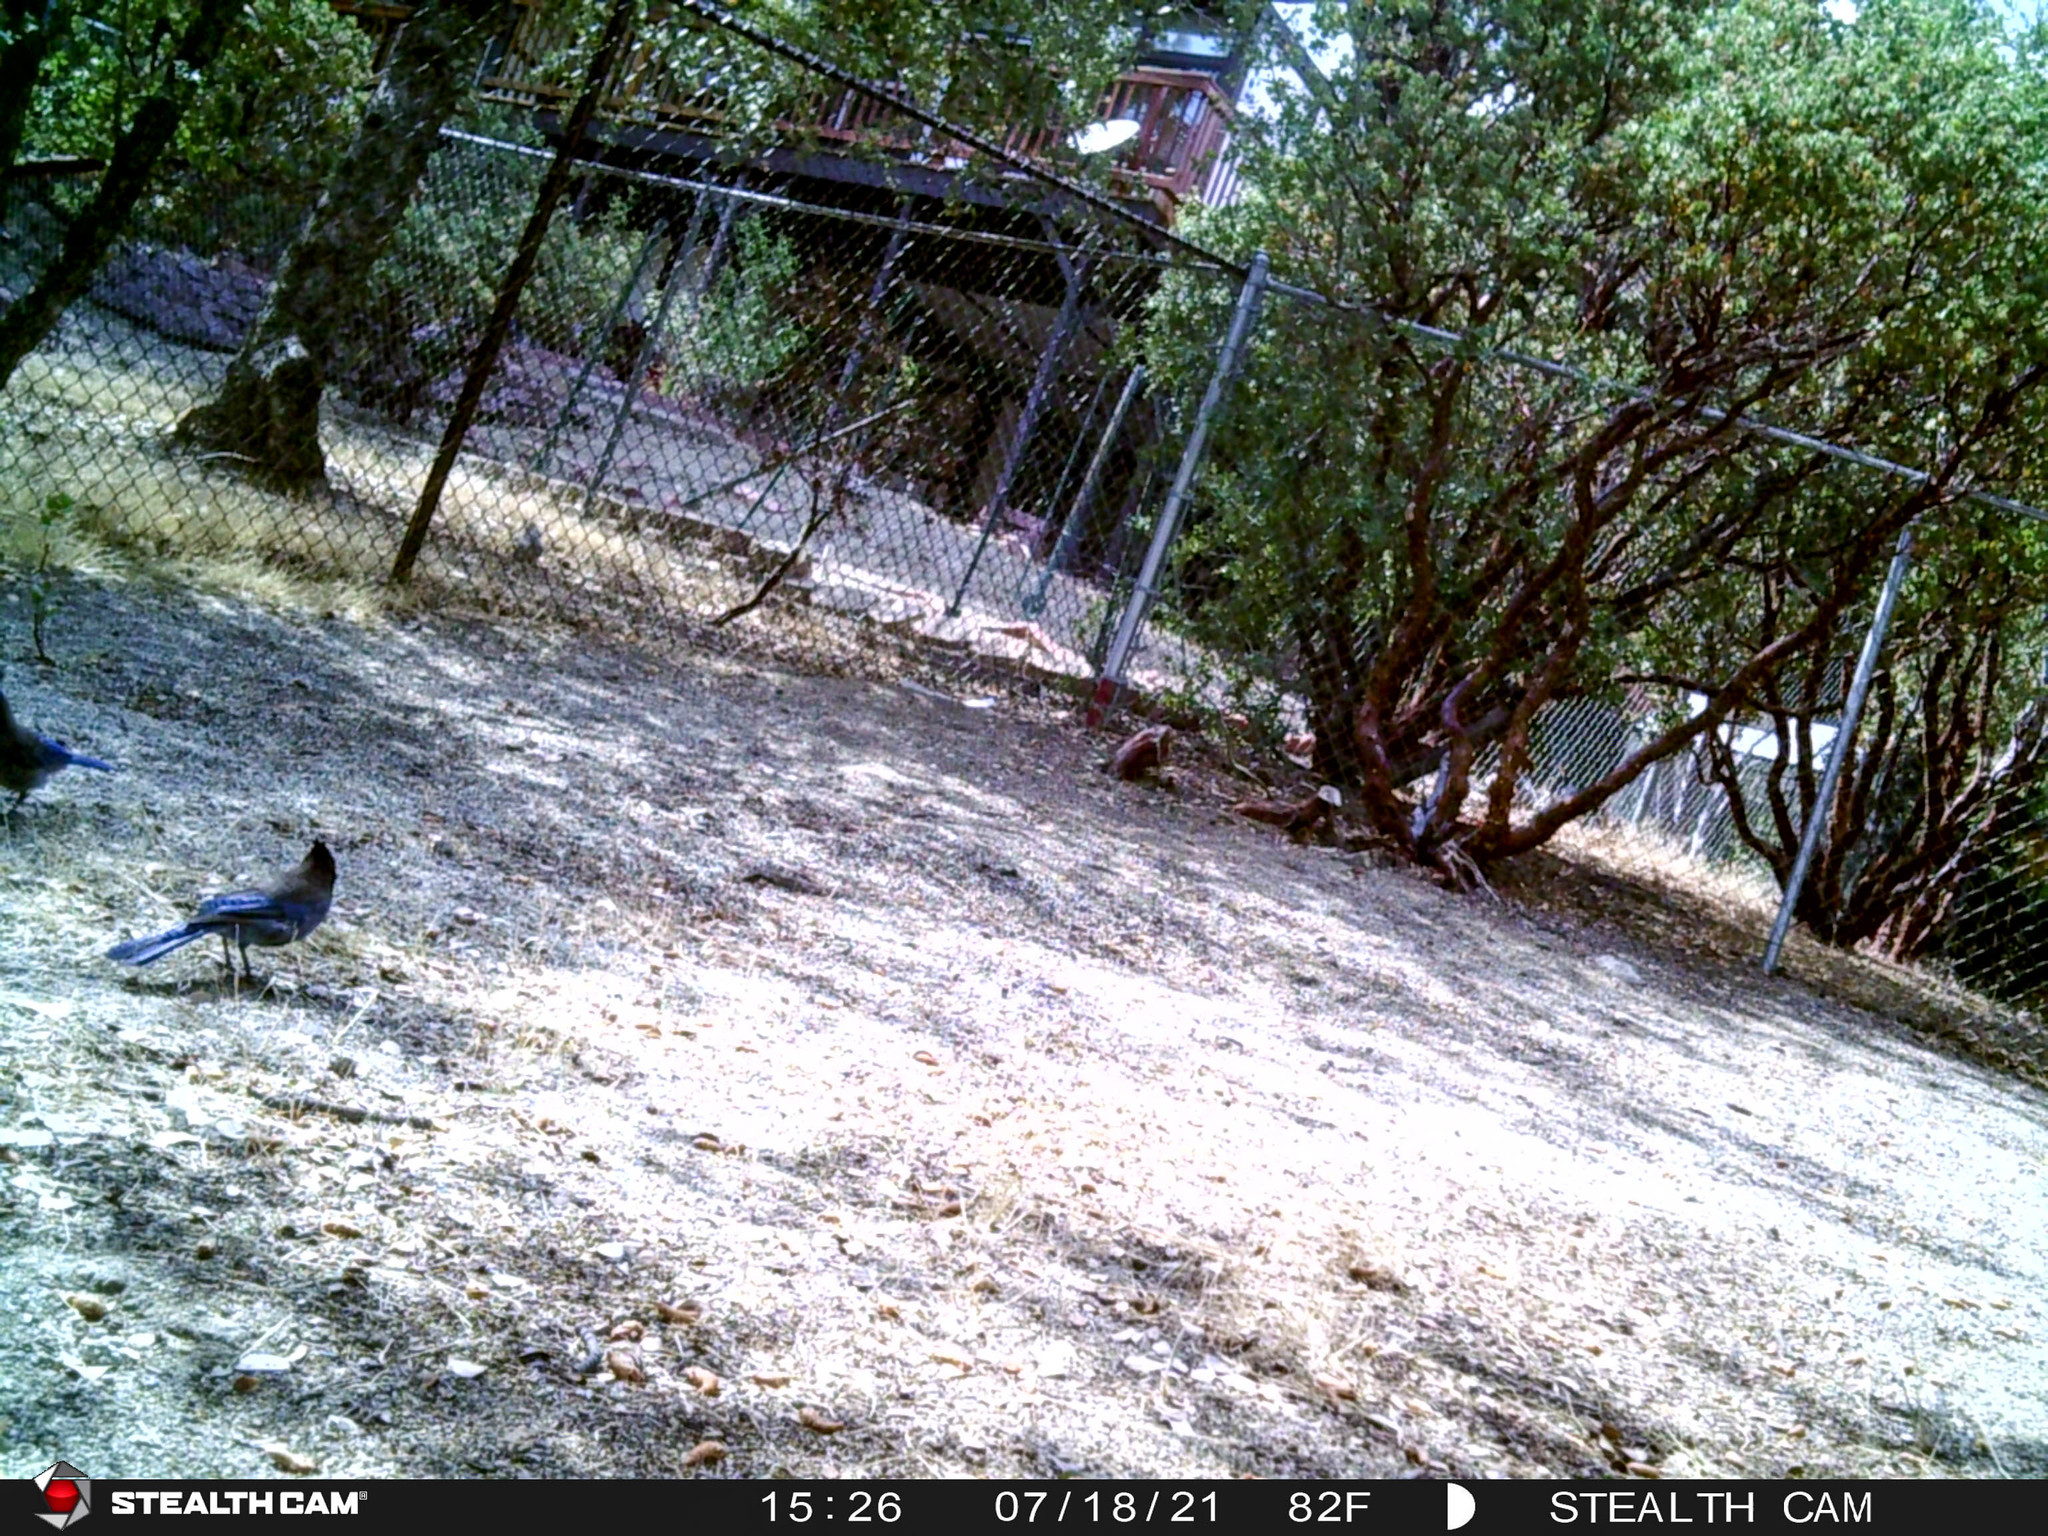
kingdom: Animalia
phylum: Chordata
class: Aves
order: Passeriformes
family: Corvidae
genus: Cyanocitta
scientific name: Cyanocitta stelleri
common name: Steller's jay
